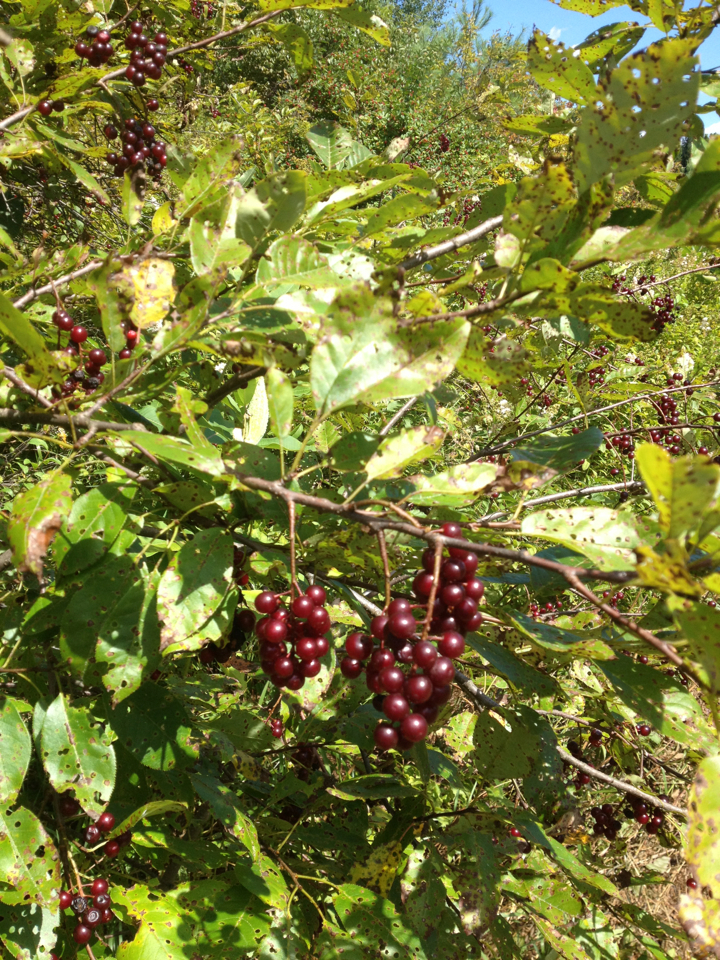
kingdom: Plantae
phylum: Tracheophyta
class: Magnoliopsida
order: Rosales
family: Rosaceae
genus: Prunus
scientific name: Prunus virginiana
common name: Chokecherry
